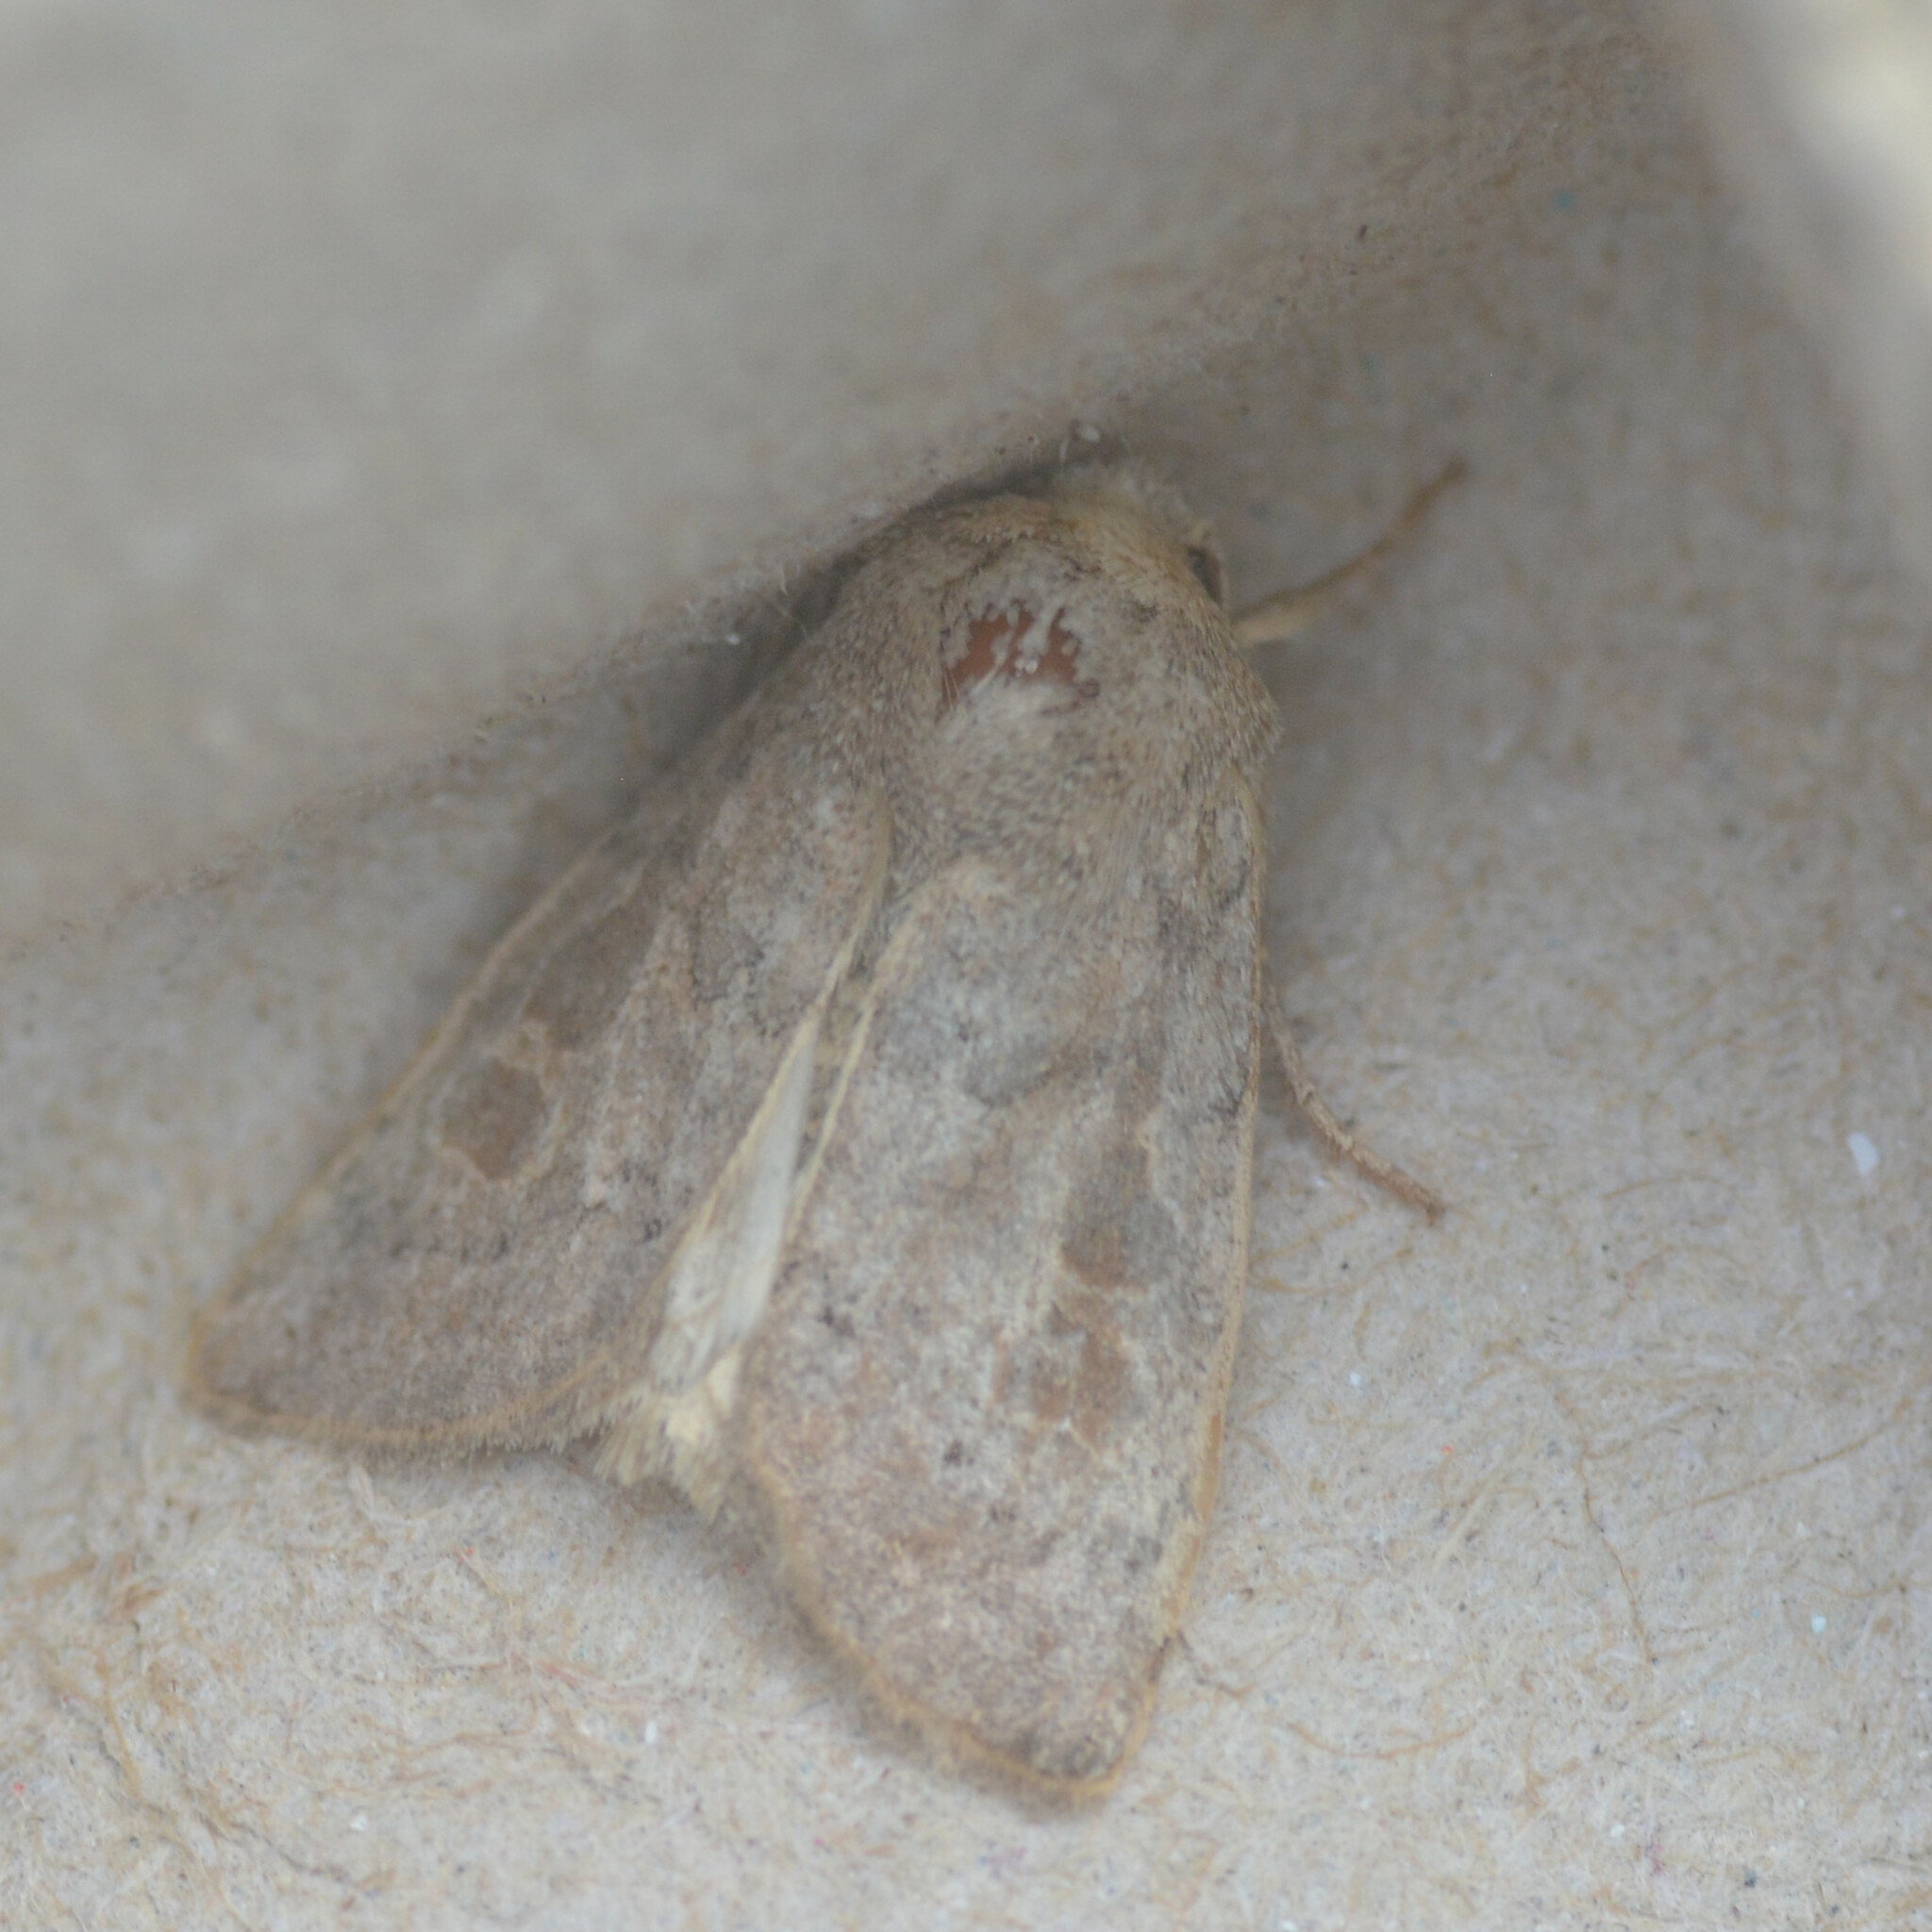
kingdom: Animalia
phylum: Arthropoda
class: Insecta
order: Lepidoptera
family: Noctuidae
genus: Hoplodrina
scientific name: Hoplodrina ambigua
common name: Vine's rustic
